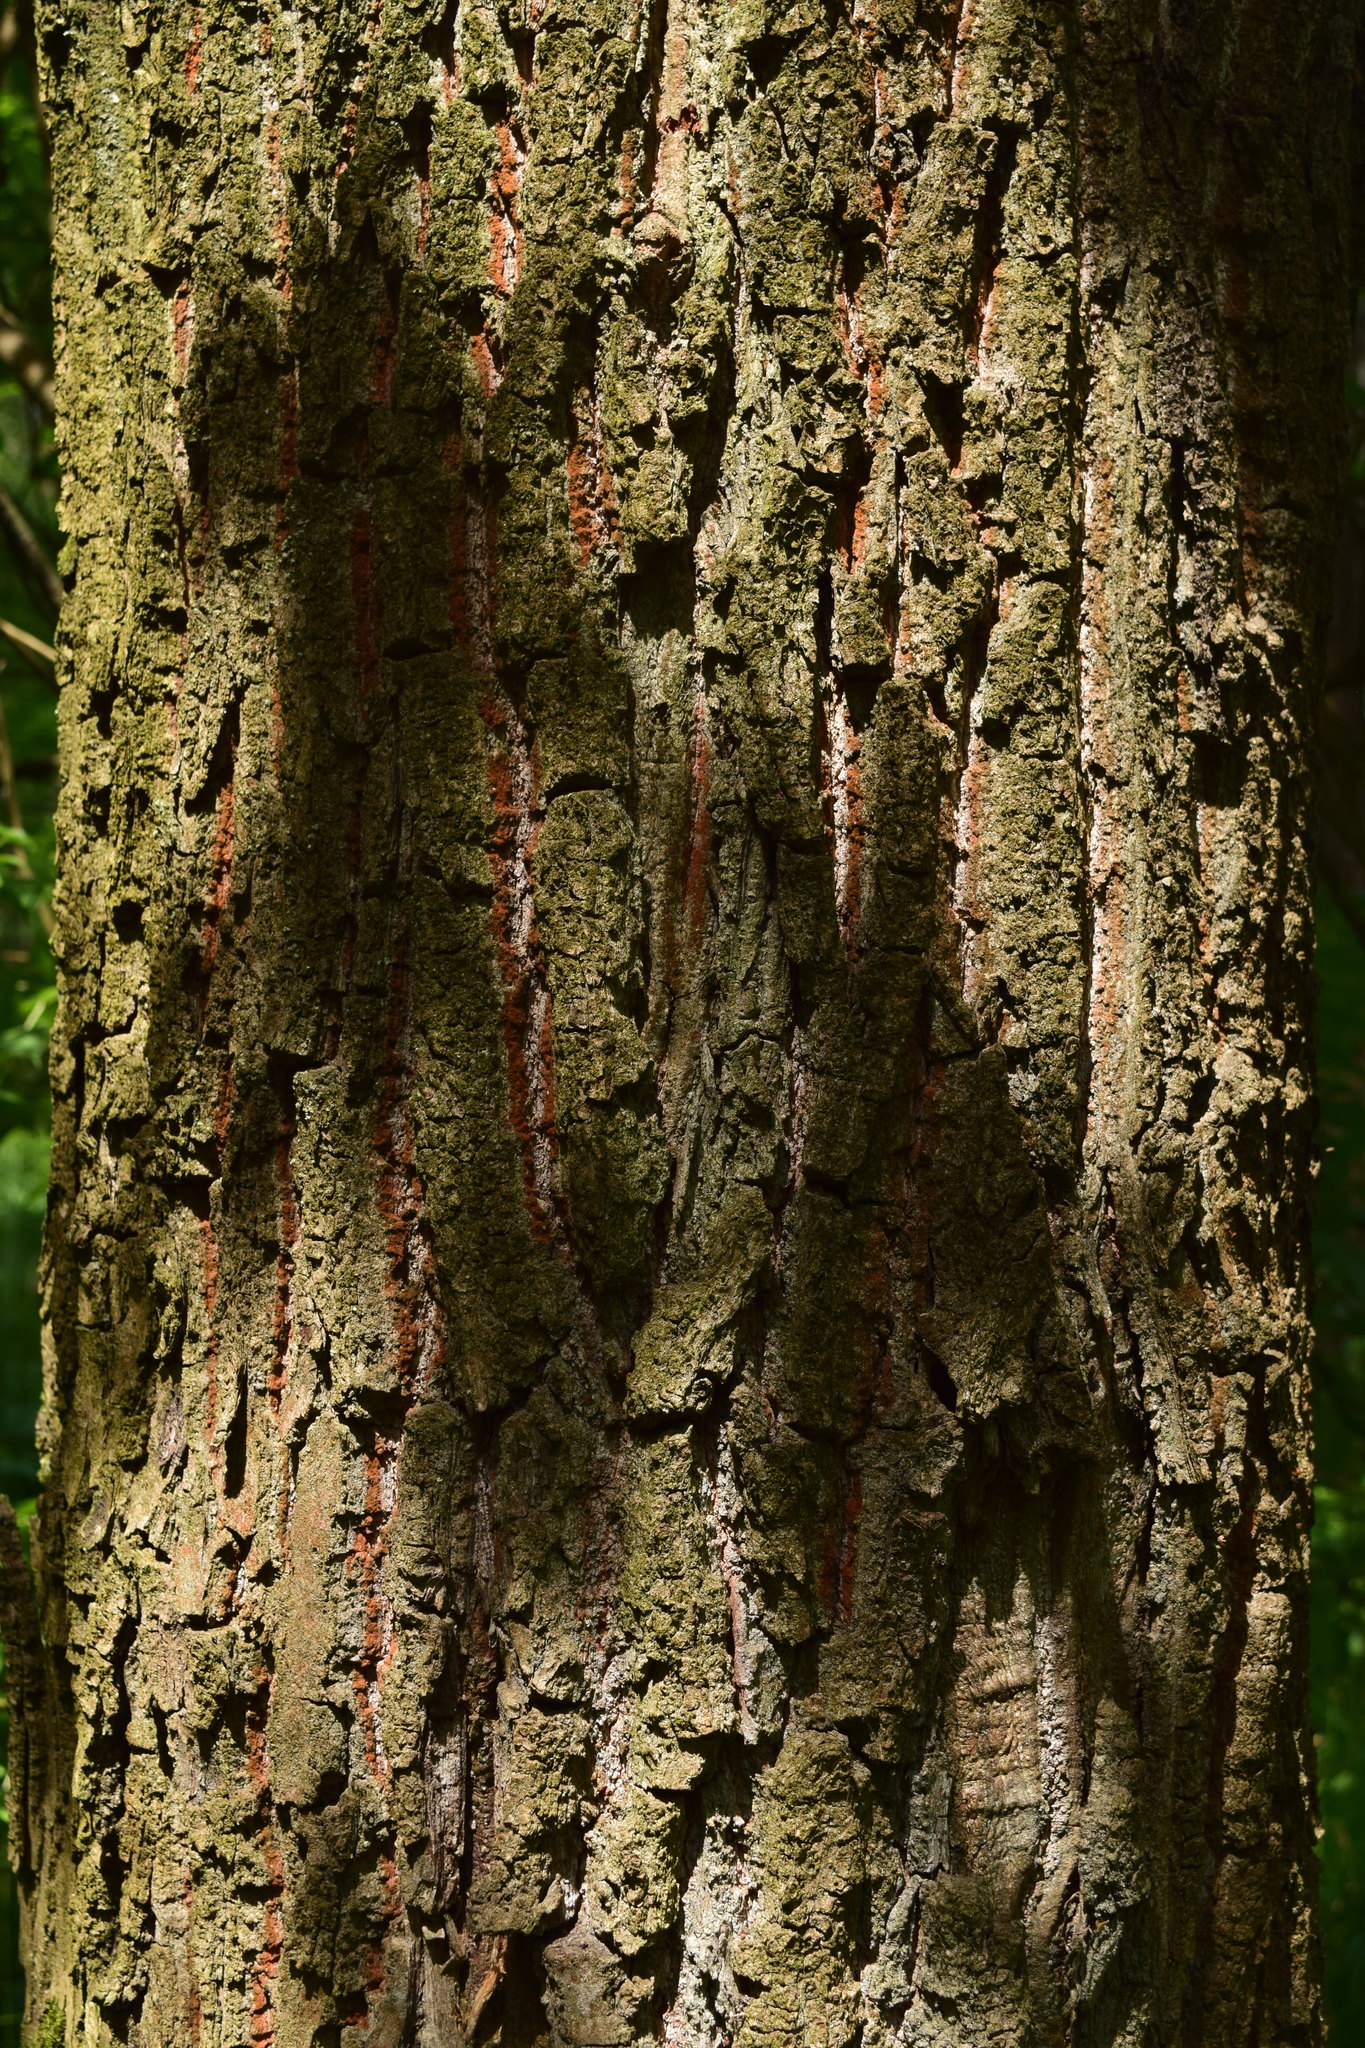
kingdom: Plantae
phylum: Tracheophyta
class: Magnoliopsida
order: Fagales
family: Fagaceae
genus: Quercus
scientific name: Quercus robur
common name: Pedunculate oak
